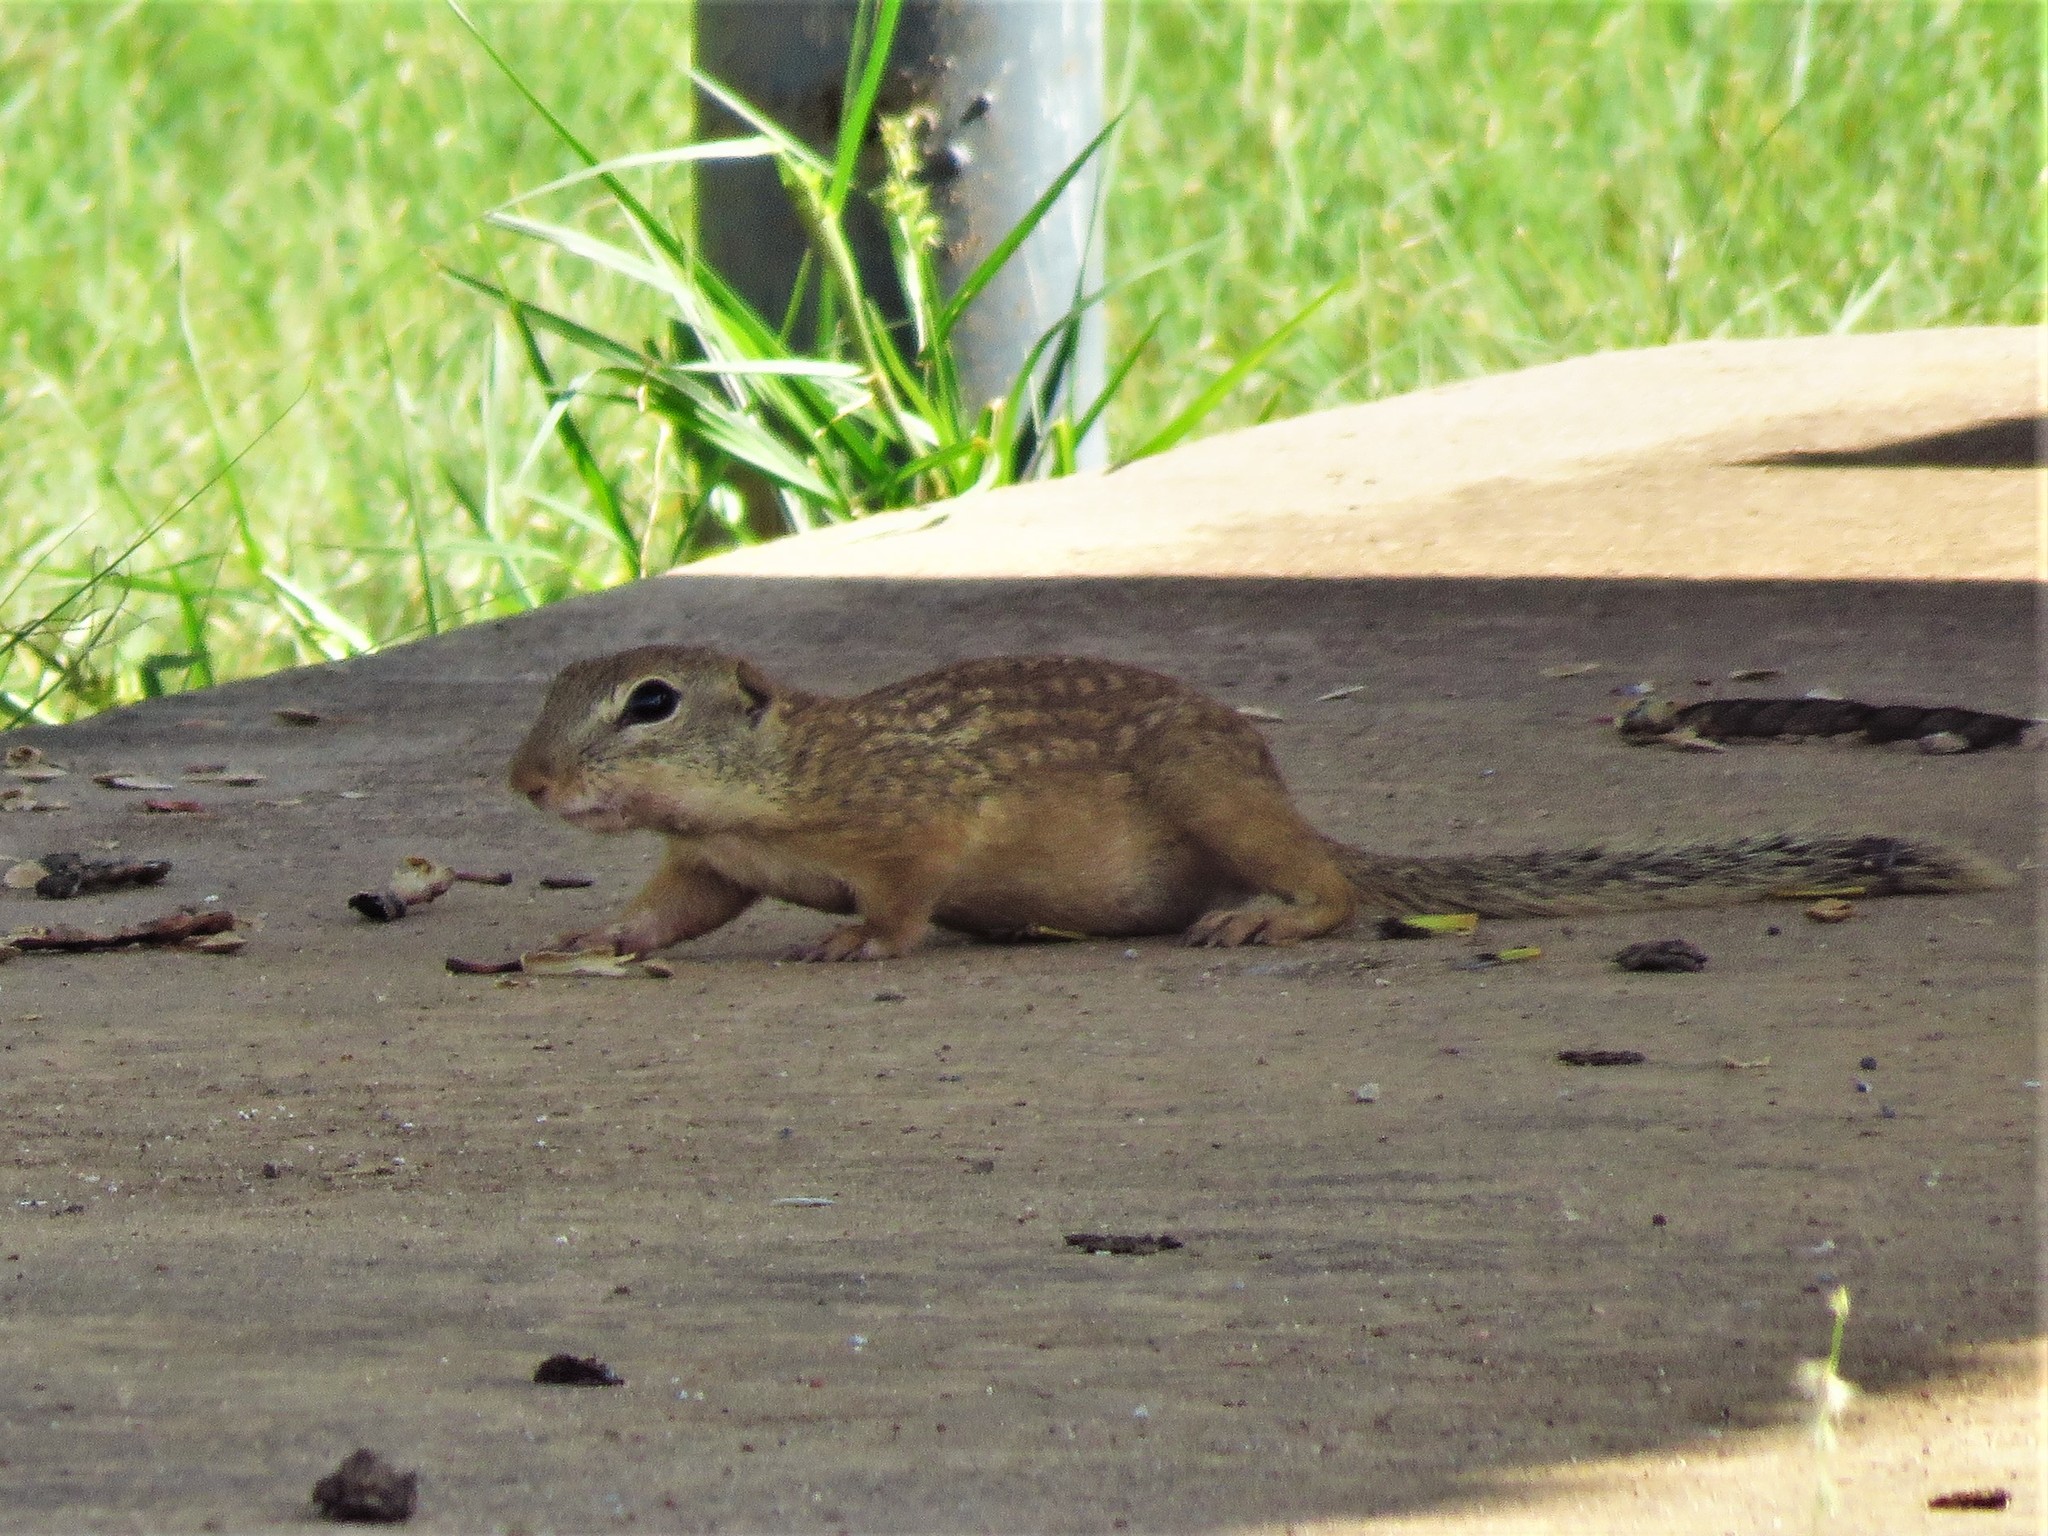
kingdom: Animalia
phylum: Chordata
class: Mammalia
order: Rodentia
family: Sciuridae
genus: Ictidomys
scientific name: Ictidomys parvidens
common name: Rio grande ground squirrel
